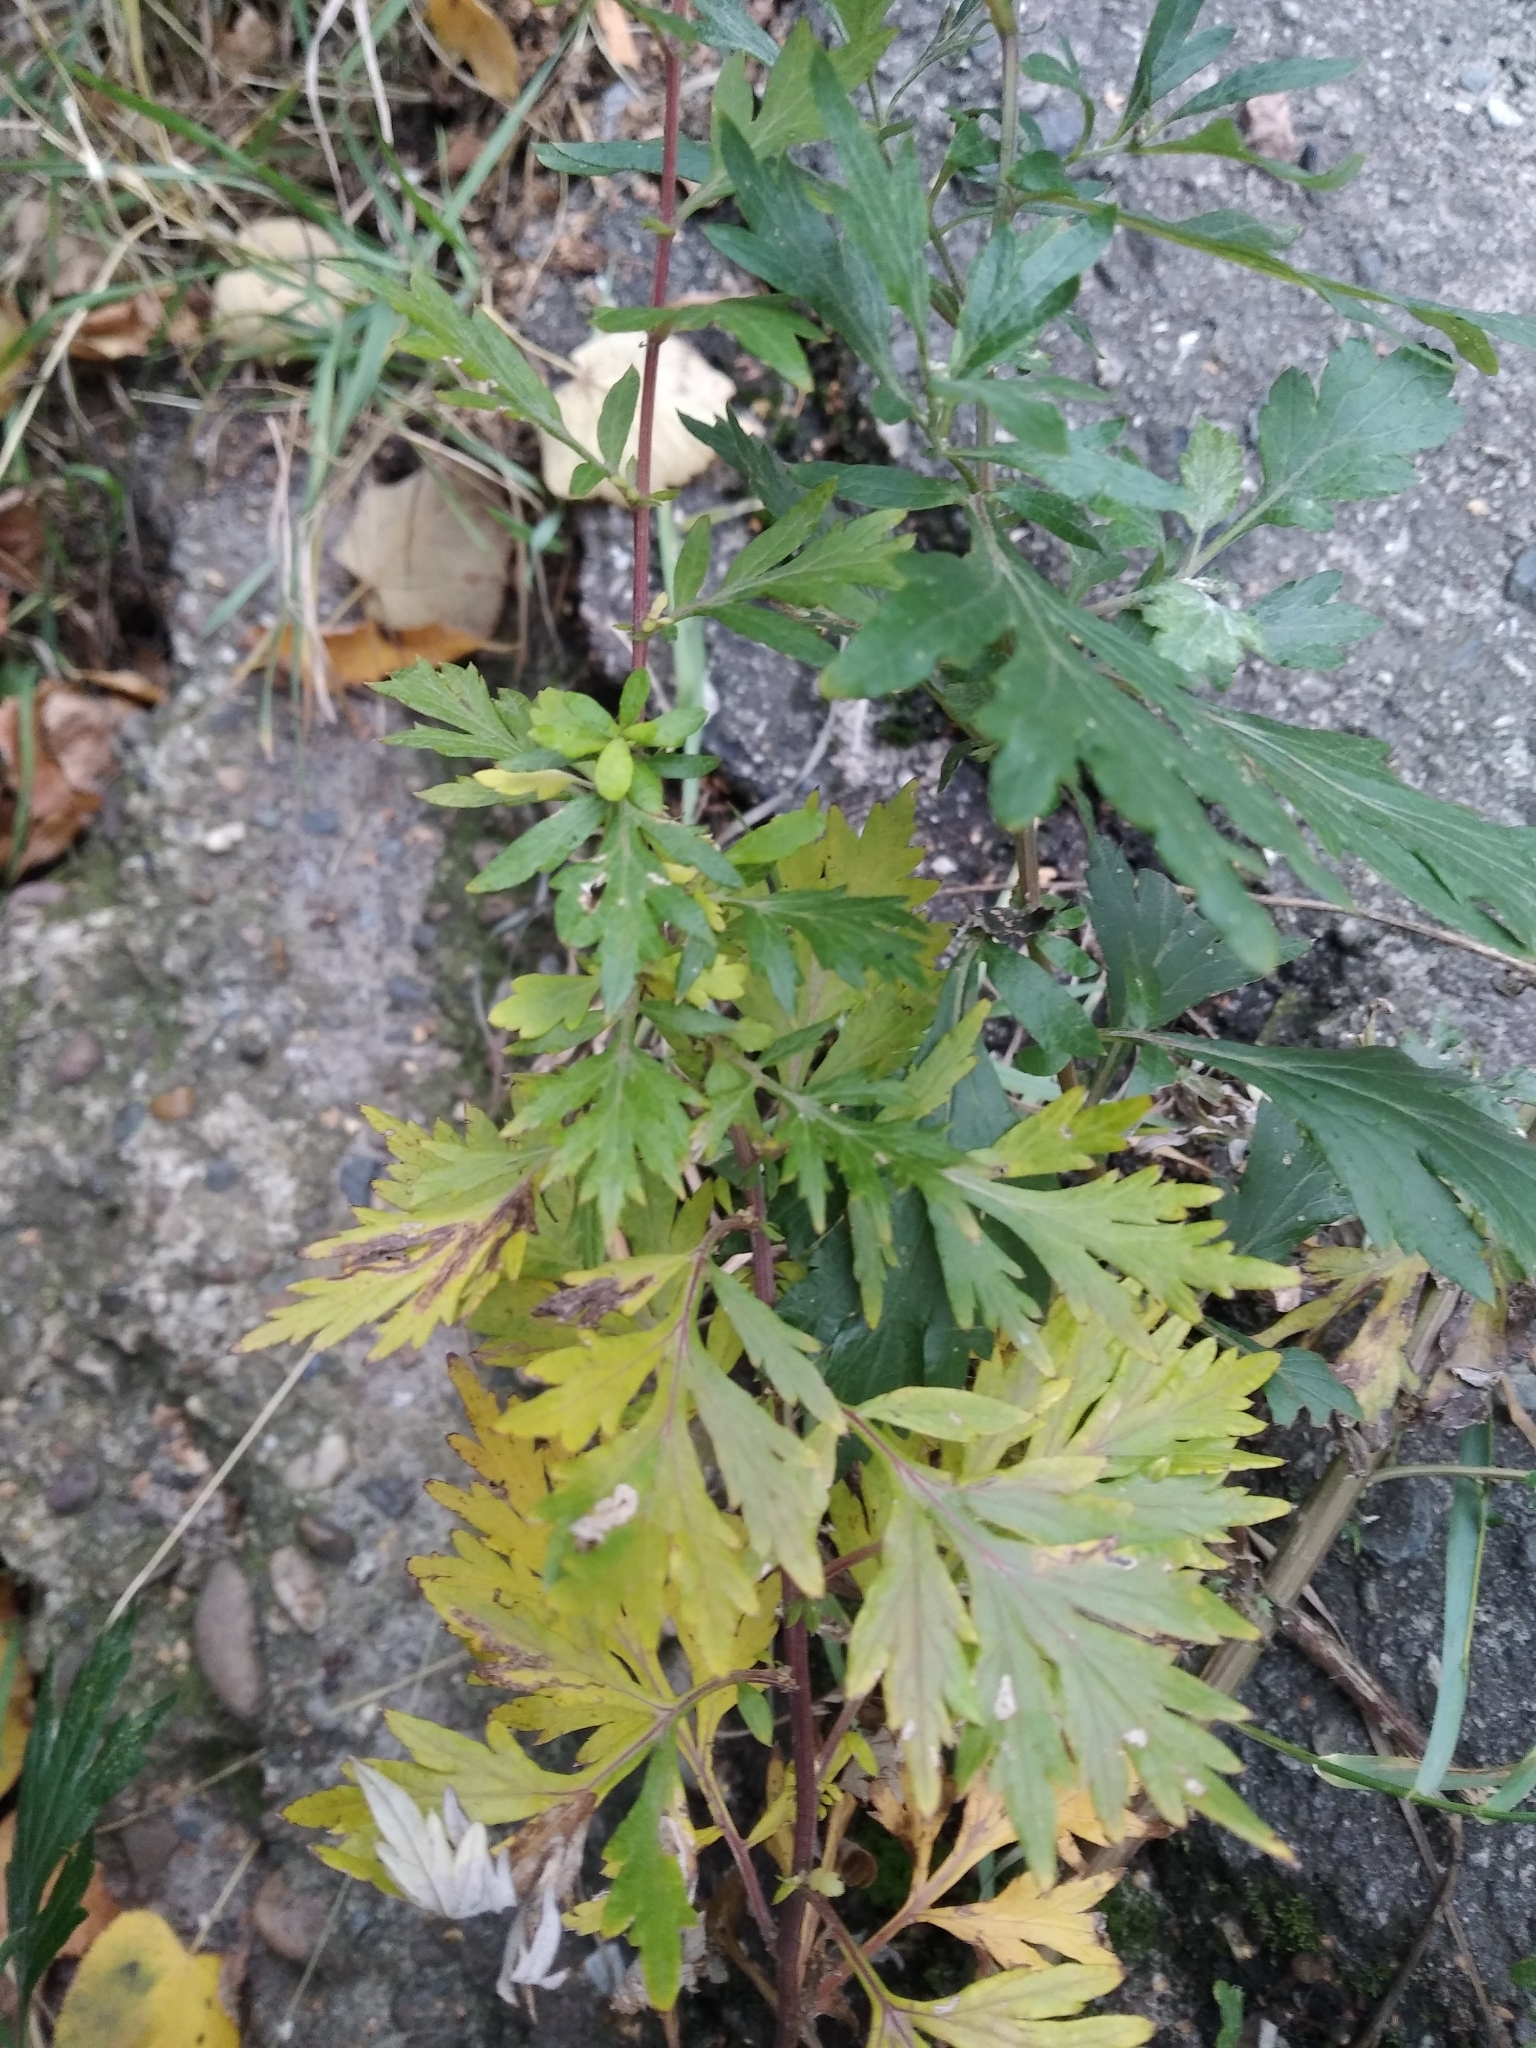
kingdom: Plantae
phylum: Tracheophyta
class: Magnoliopsida
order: Asterales
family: Asteraceae
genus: Artemisia
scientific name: Artemisia vulgaris
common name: Mugwort
